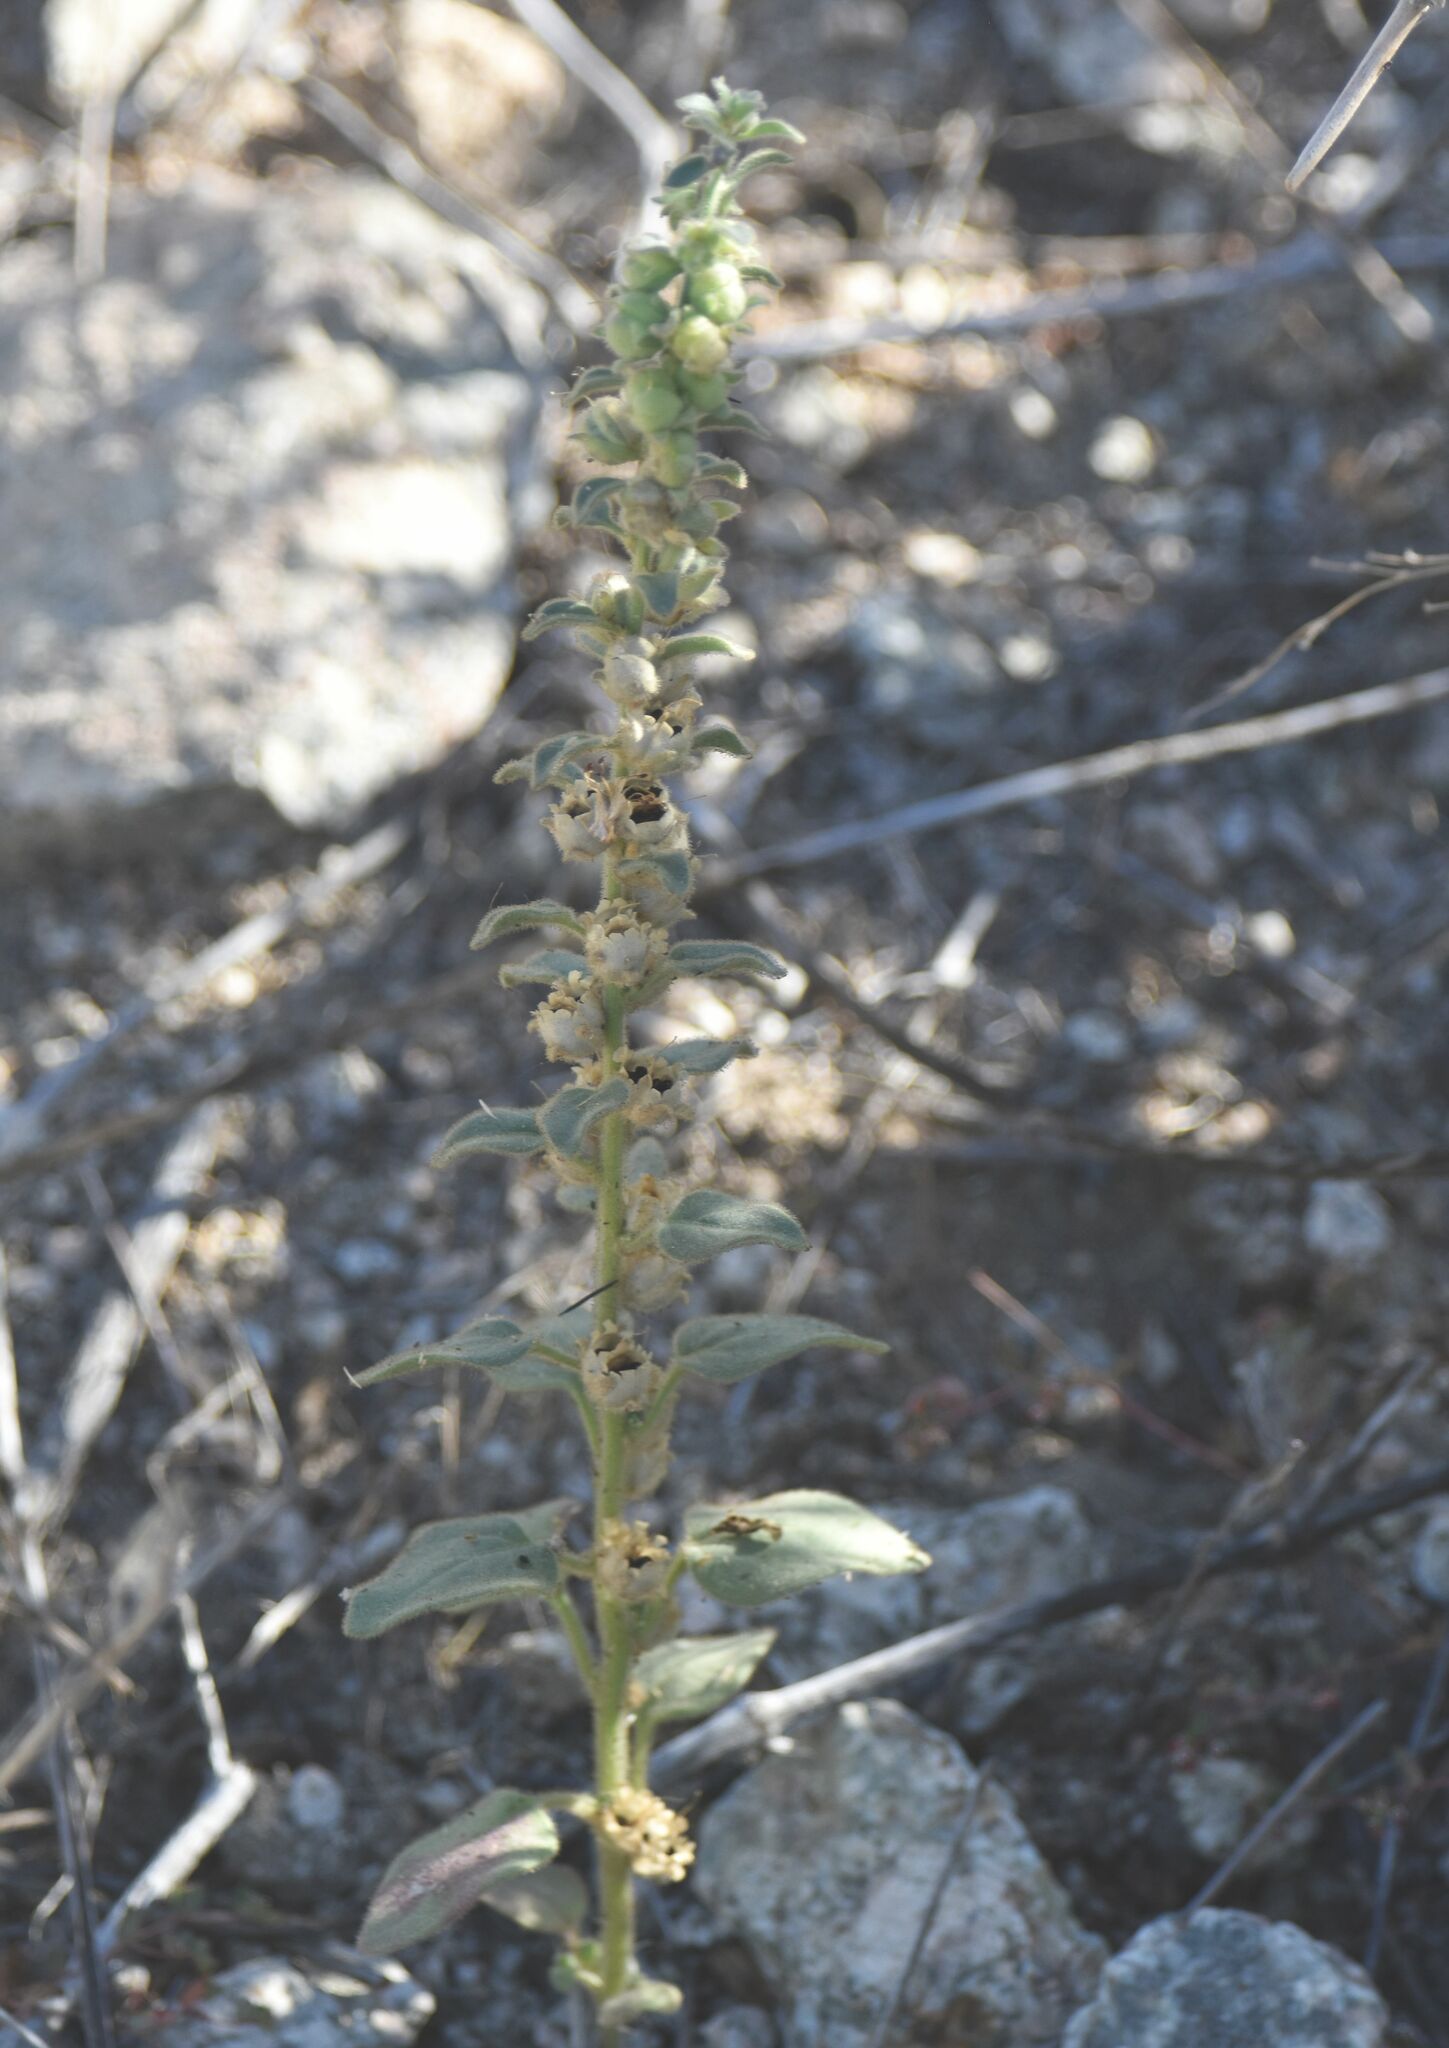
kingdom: Plantae
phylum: Tracheophyta
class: Magnoliopsida
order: Lamiales
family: Plantaginaceae
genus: Pseudorontium
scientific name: Pseudorontium cyathiferum
